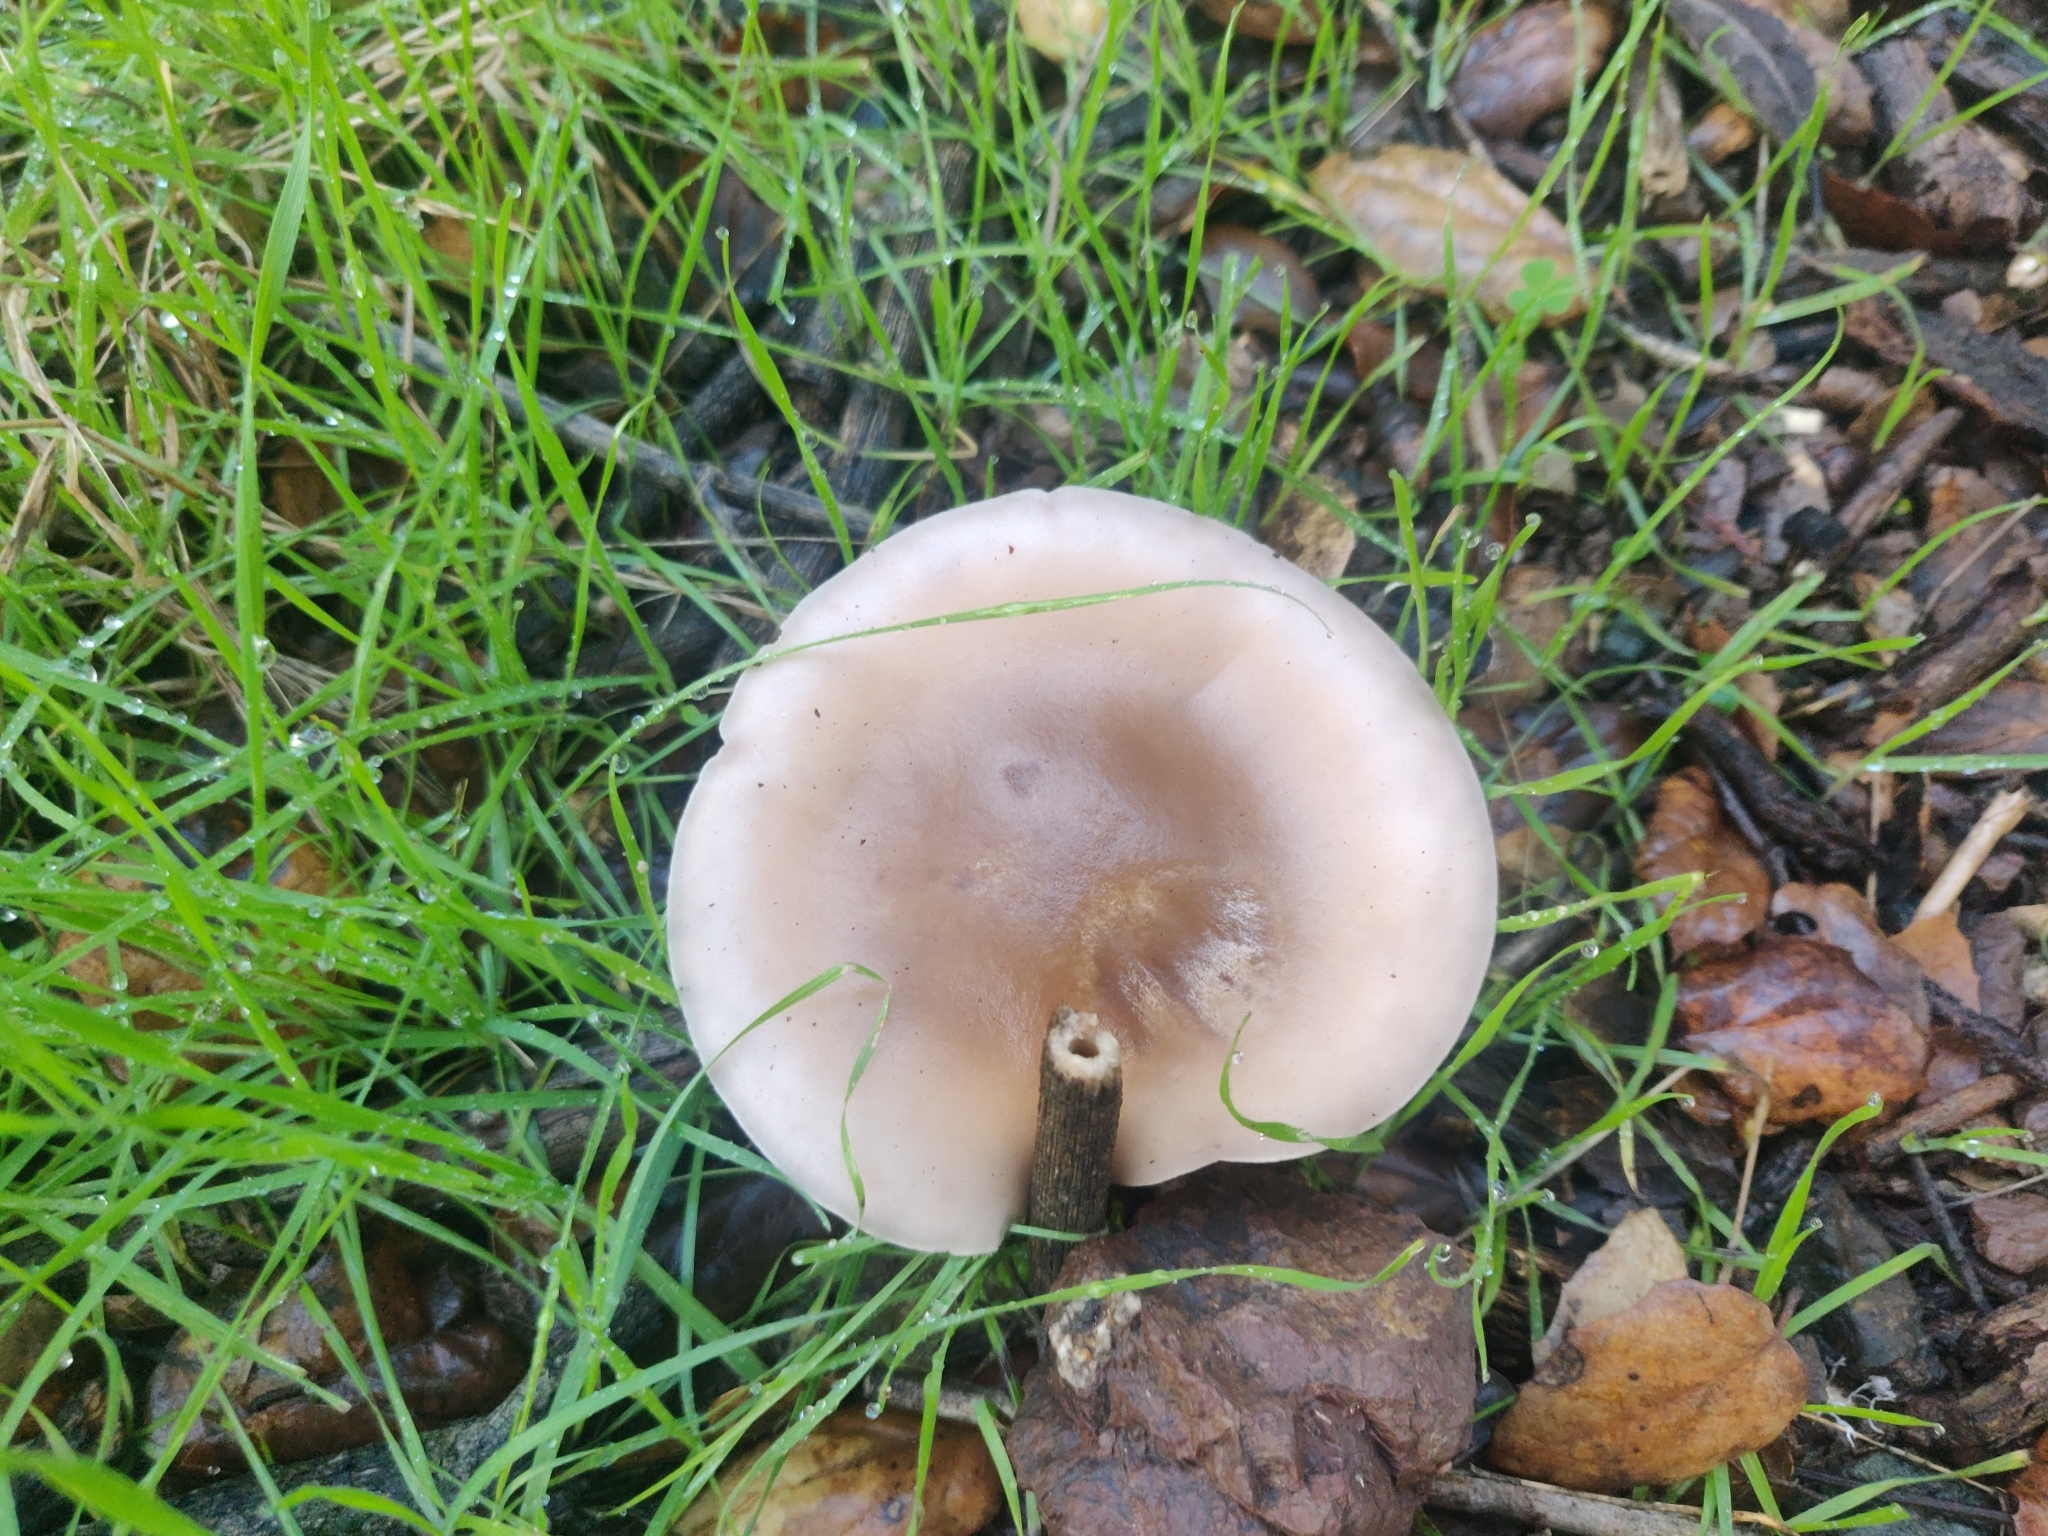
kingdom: Fungi
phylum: Basidiomycota
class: Agaricomycetes
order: Agaricales
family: Tricholomataceae
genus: Collybia
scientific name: Collybia
